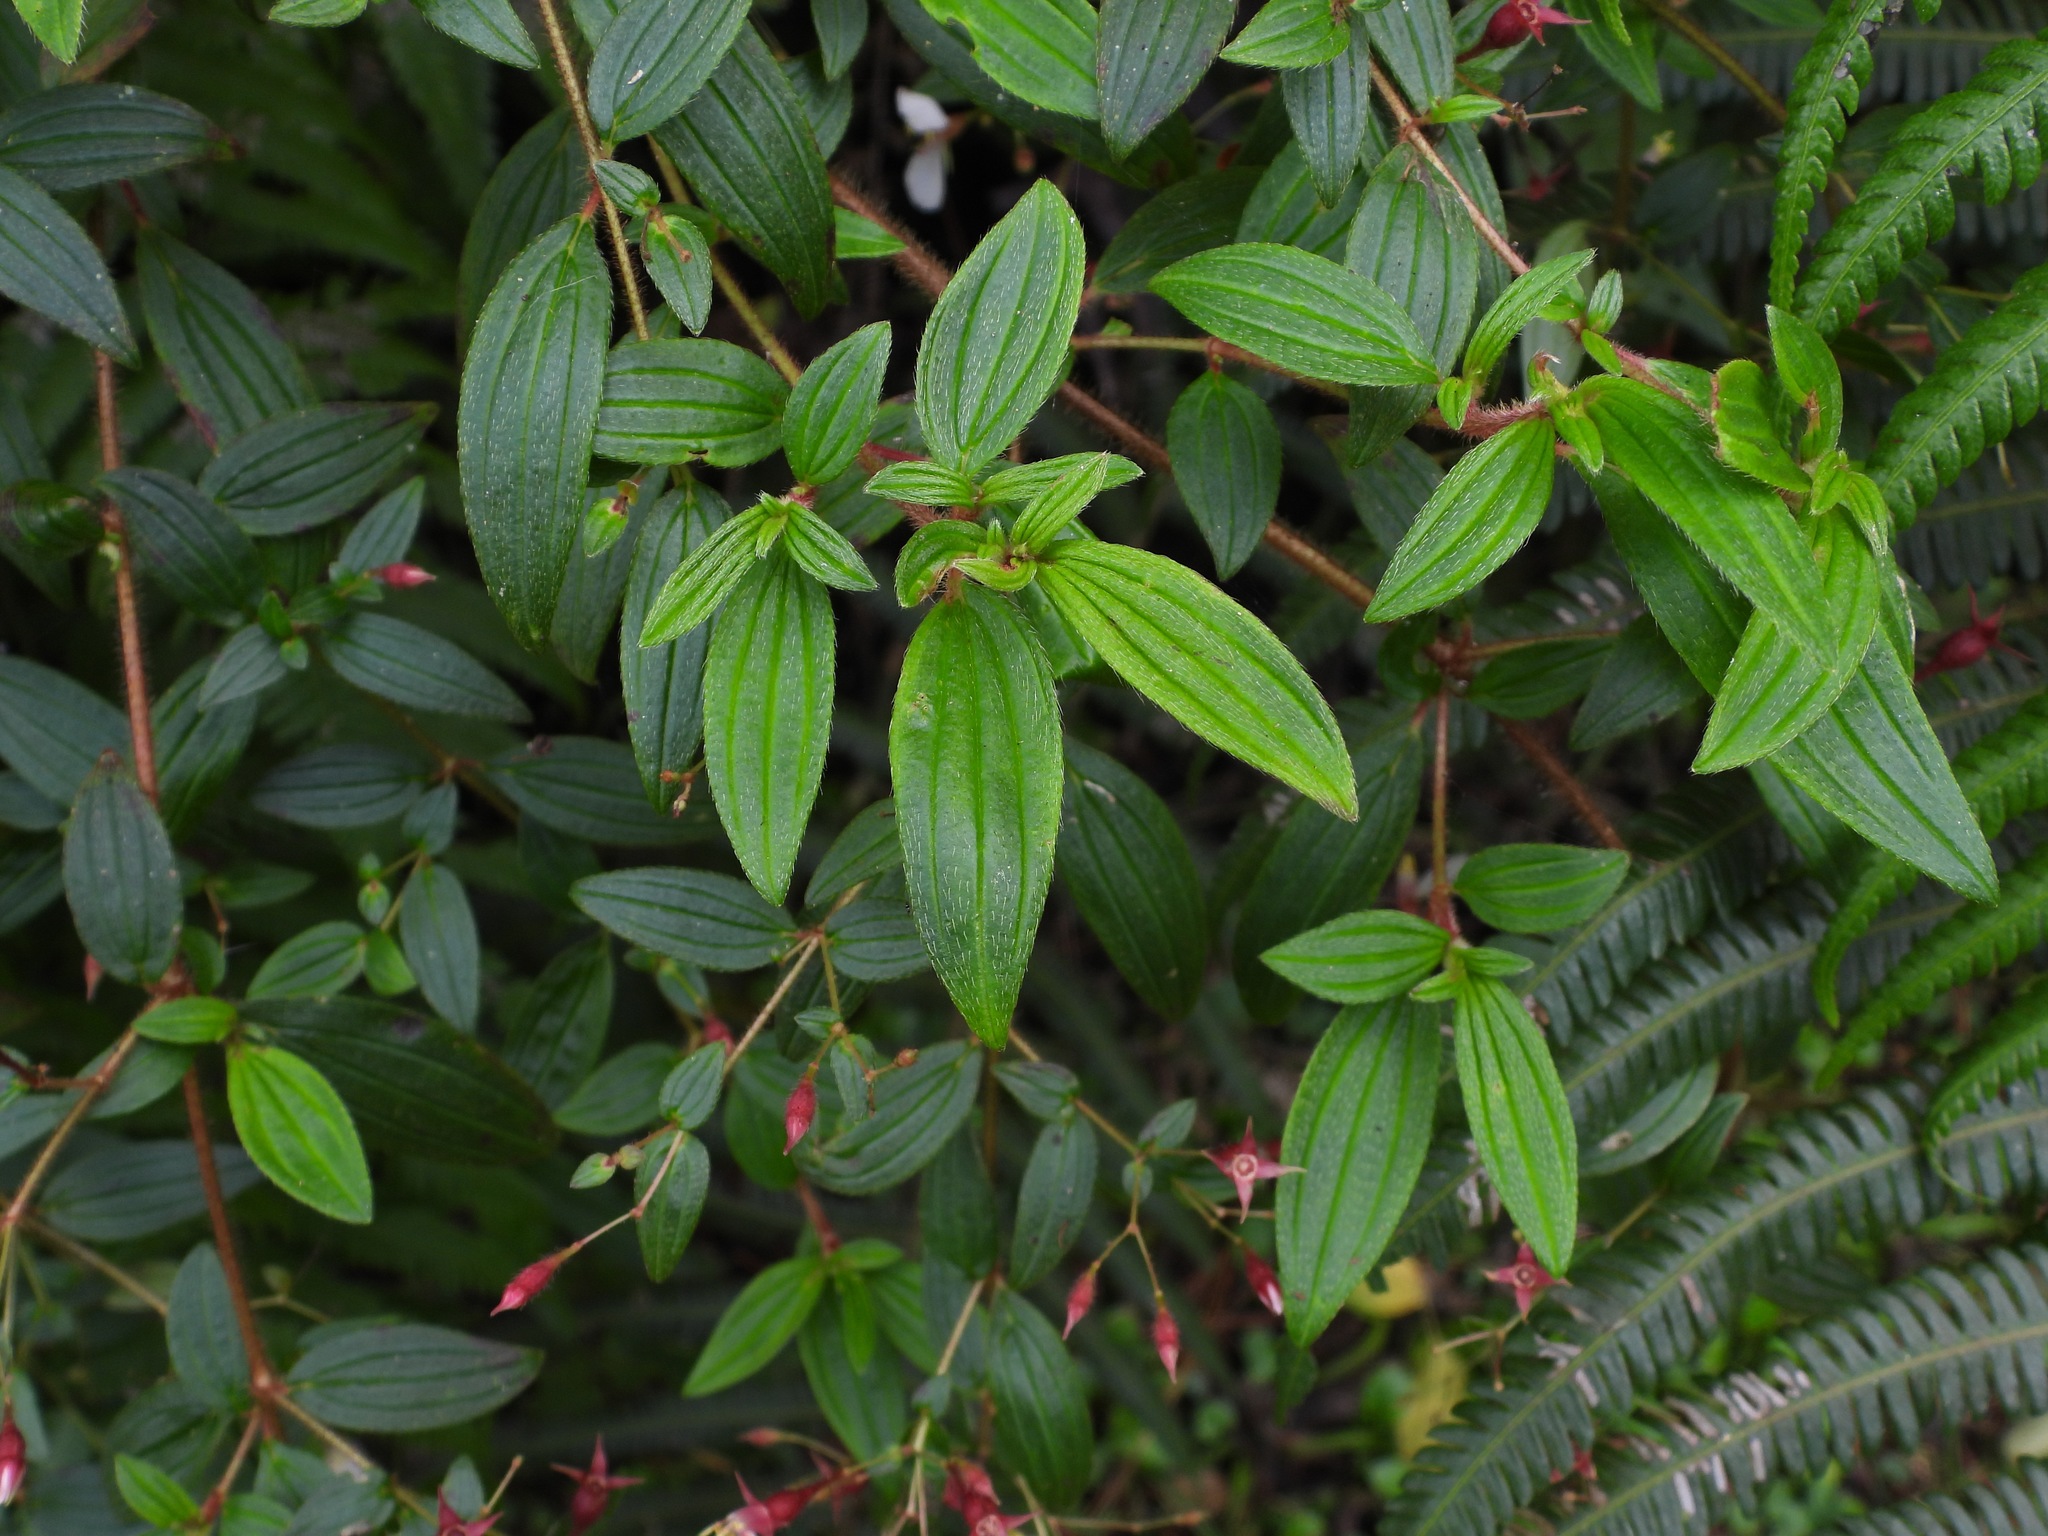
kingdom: Plantae
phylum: Tracheophyta
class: Magnoliopsida
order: Myrtales
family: Melastomataceae
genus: Monochaetum
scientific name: Monochaetum floribundum
